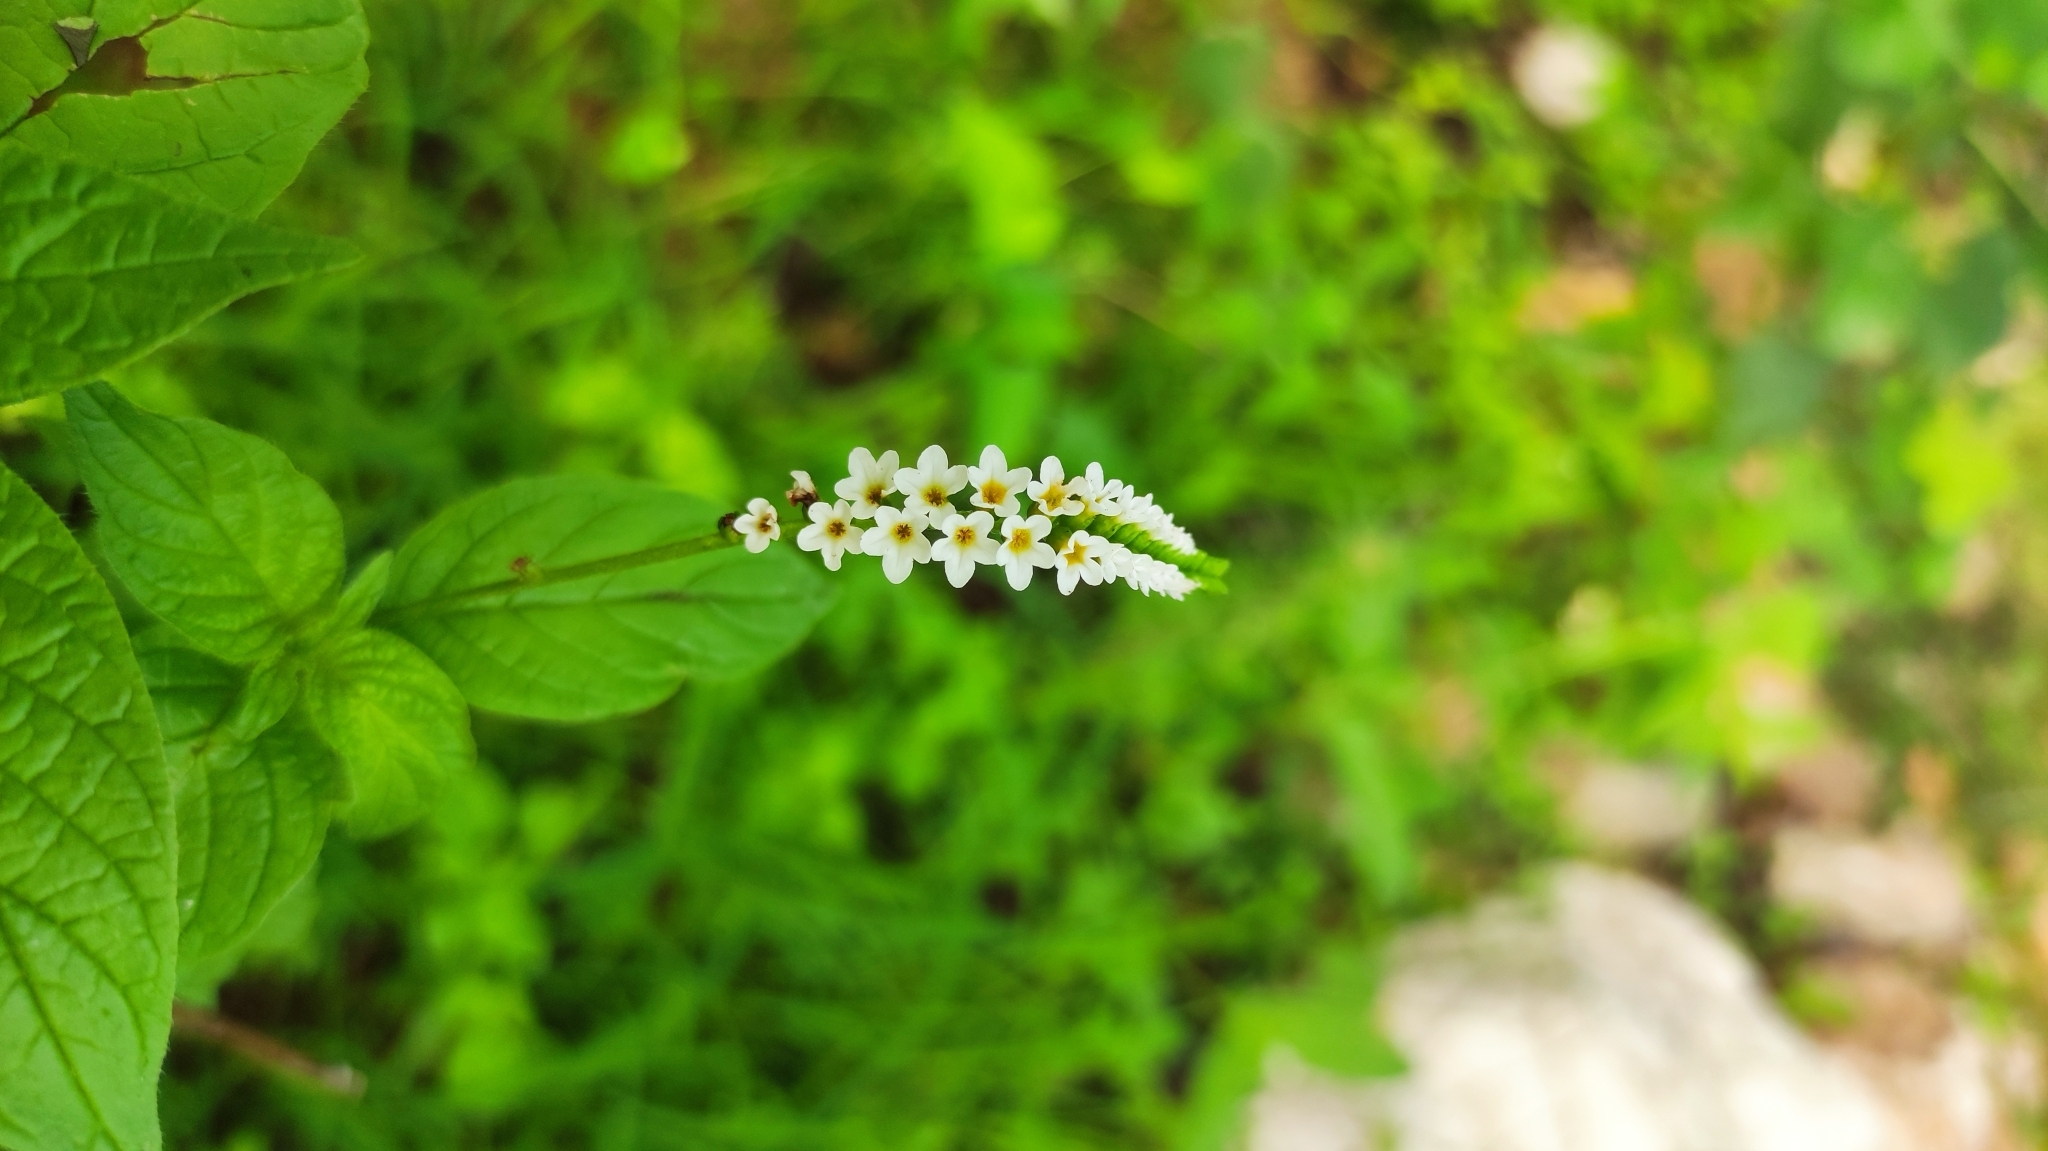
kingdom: Plantae
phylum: Tracheophyta
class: Magnoliopsida
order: Boraginales
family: Heliotropiaceae
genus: Heliotropium
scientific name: Heliotropium angiospermum
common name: Eye bright
